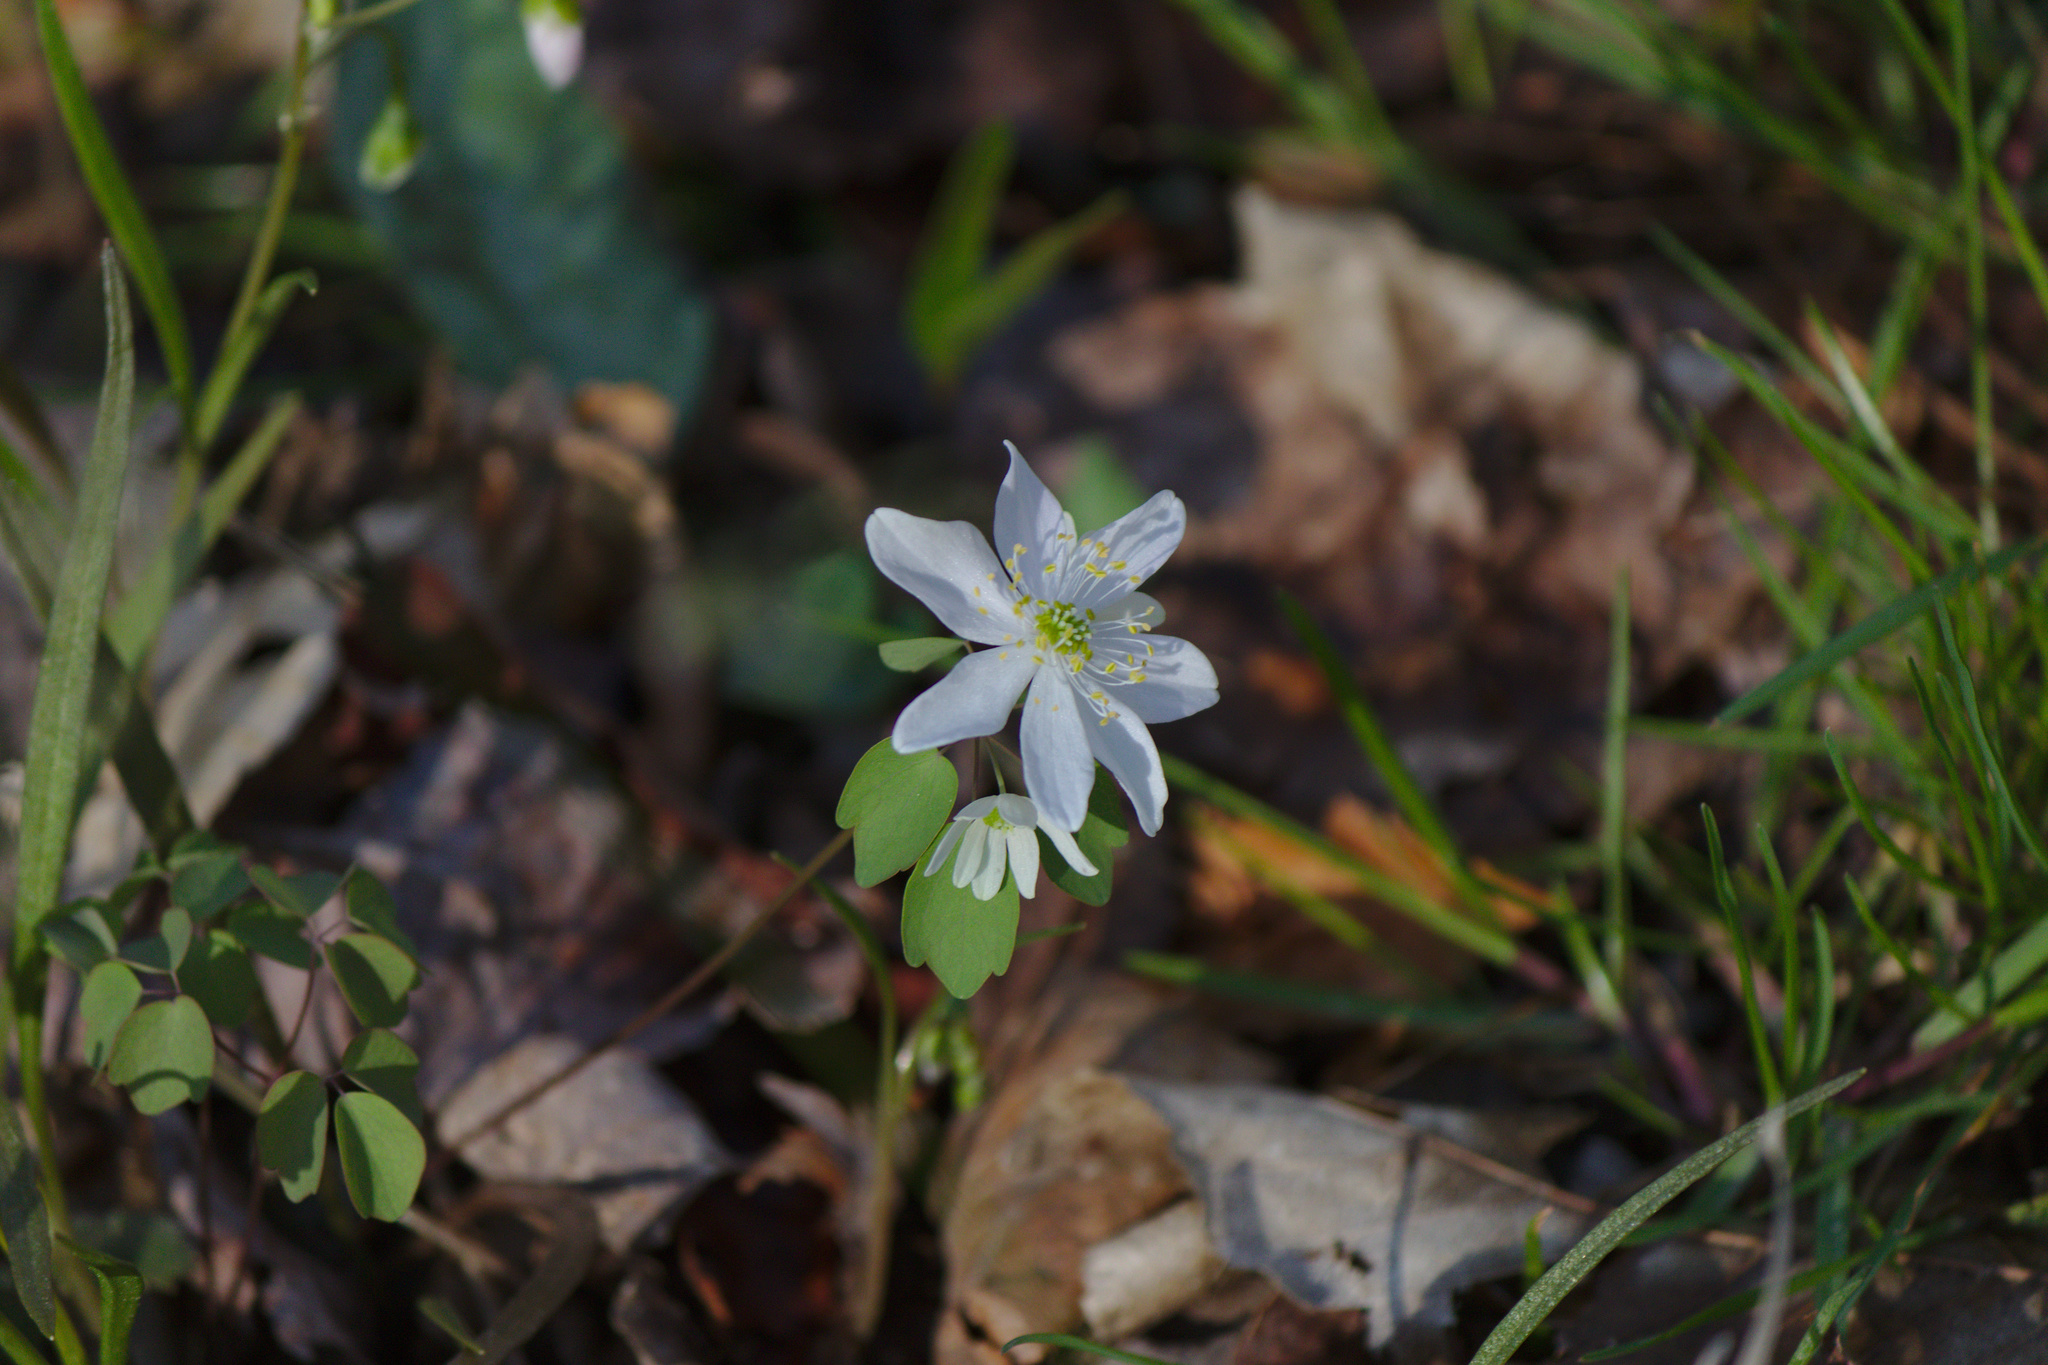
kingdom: Plantae
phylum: Tracheophyta
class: Magnoliopsida
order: Ranunculales
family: Ranunculaceae
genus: Thalictrum
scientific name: Thalictrum thalictroides
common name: Rue-anemone
